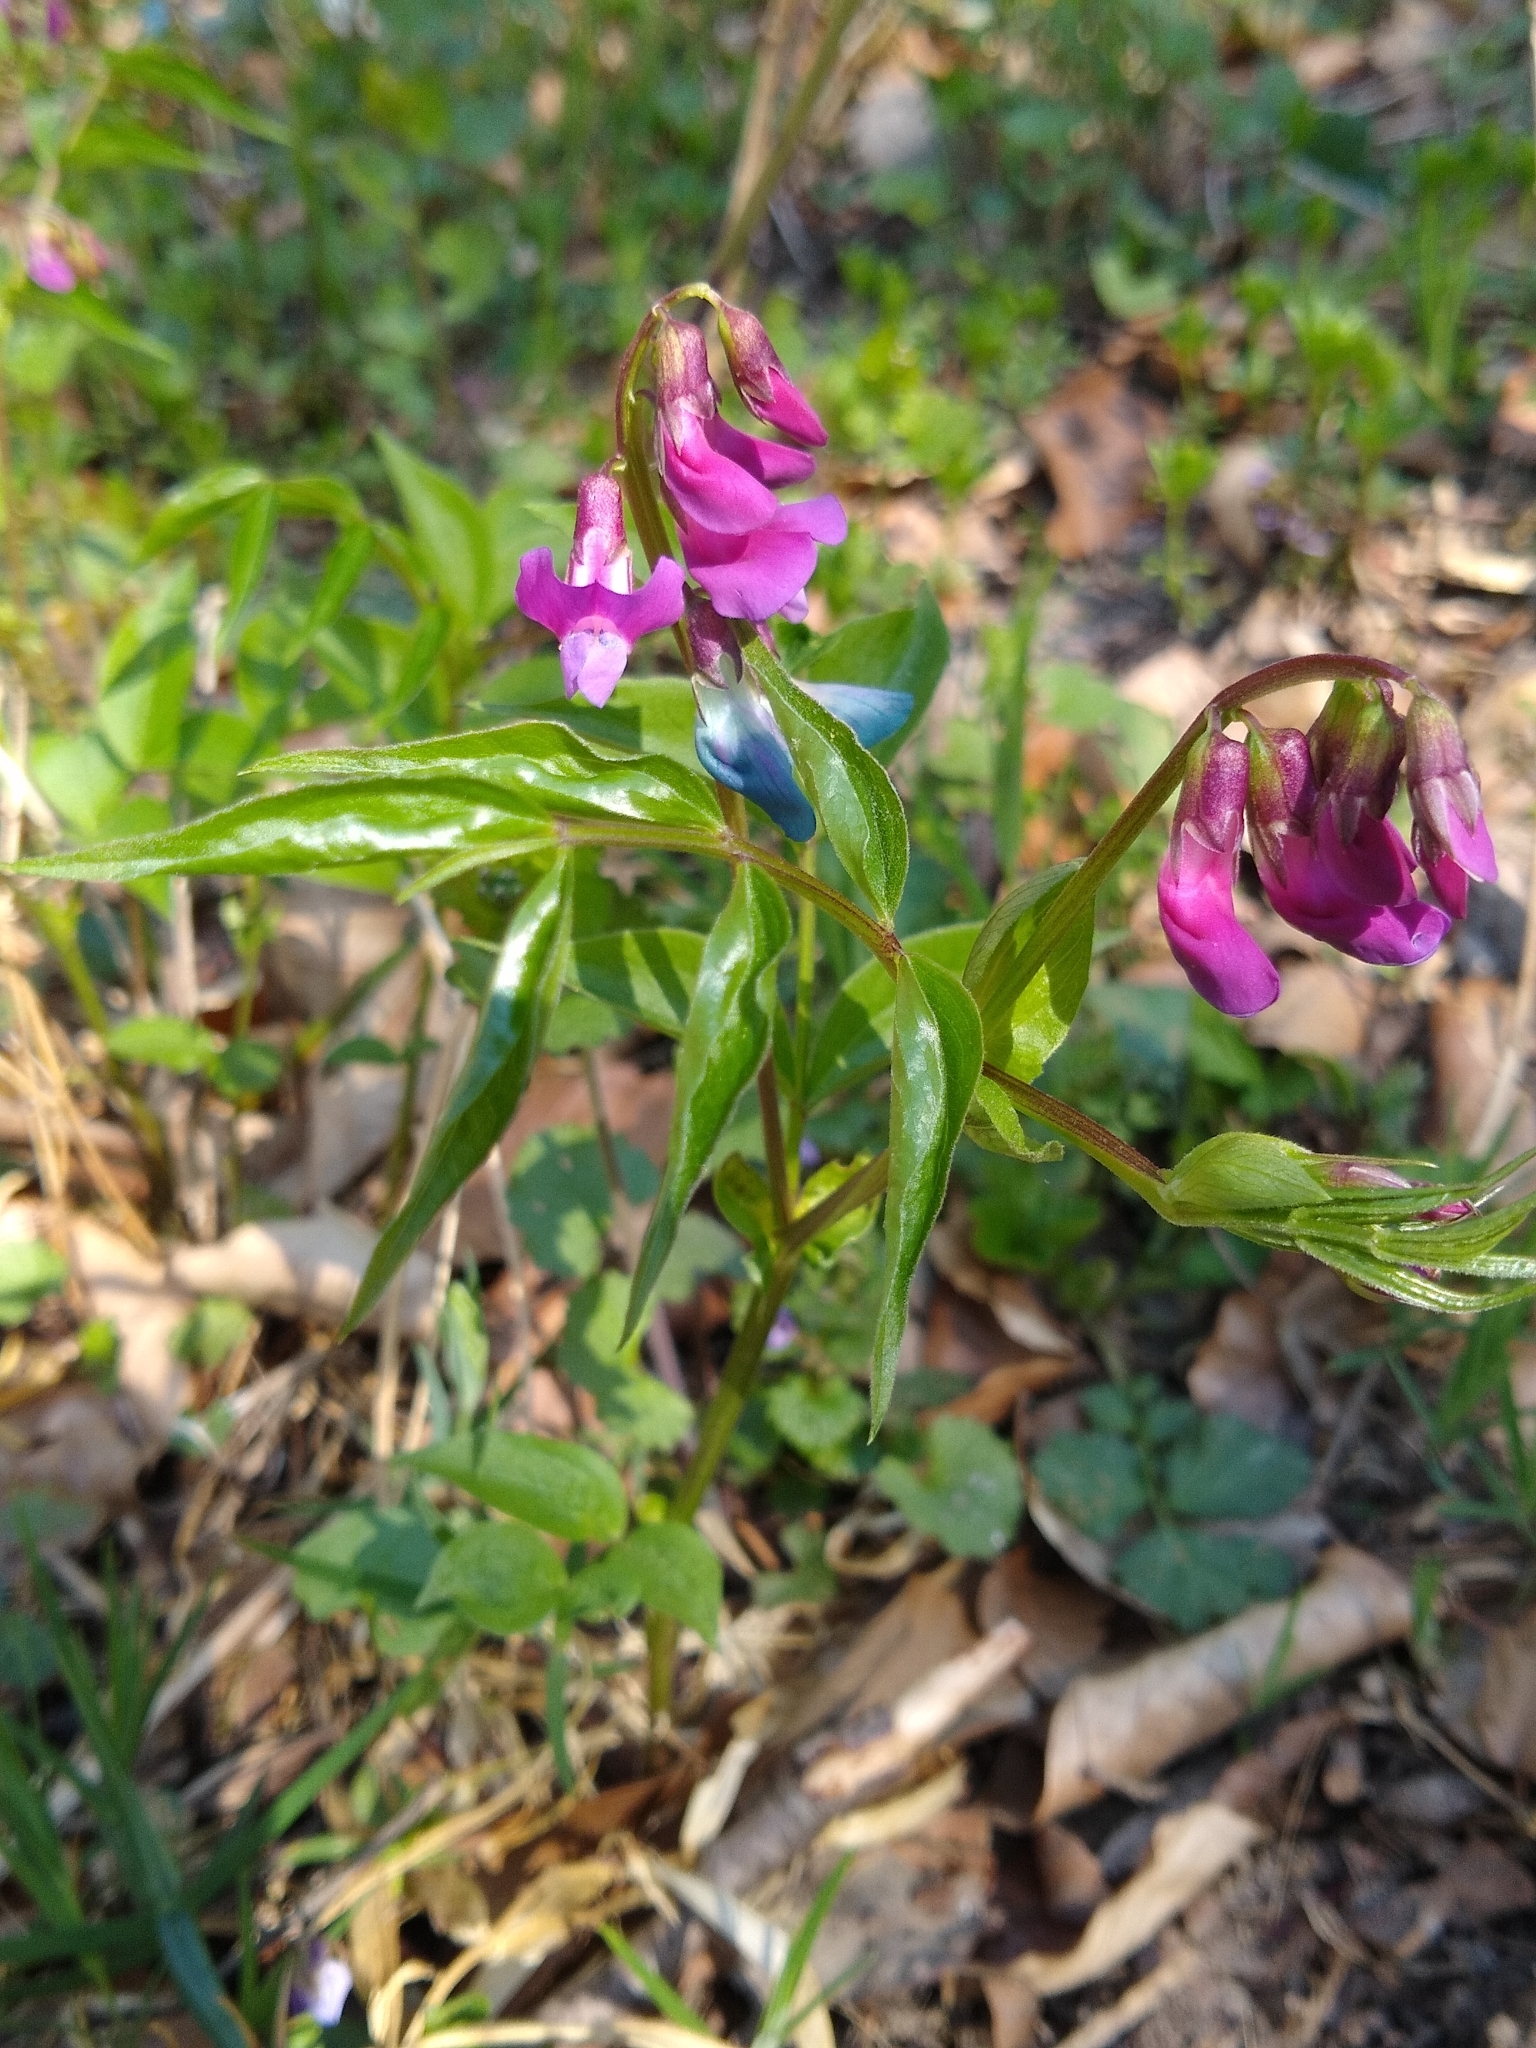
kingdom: Plantae
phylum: Tracheophyta
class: Magnoliopsida
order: Fabales
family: Fabaceae
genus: Lathyrus
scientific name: Lathyrus vernus
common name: Spring pea
